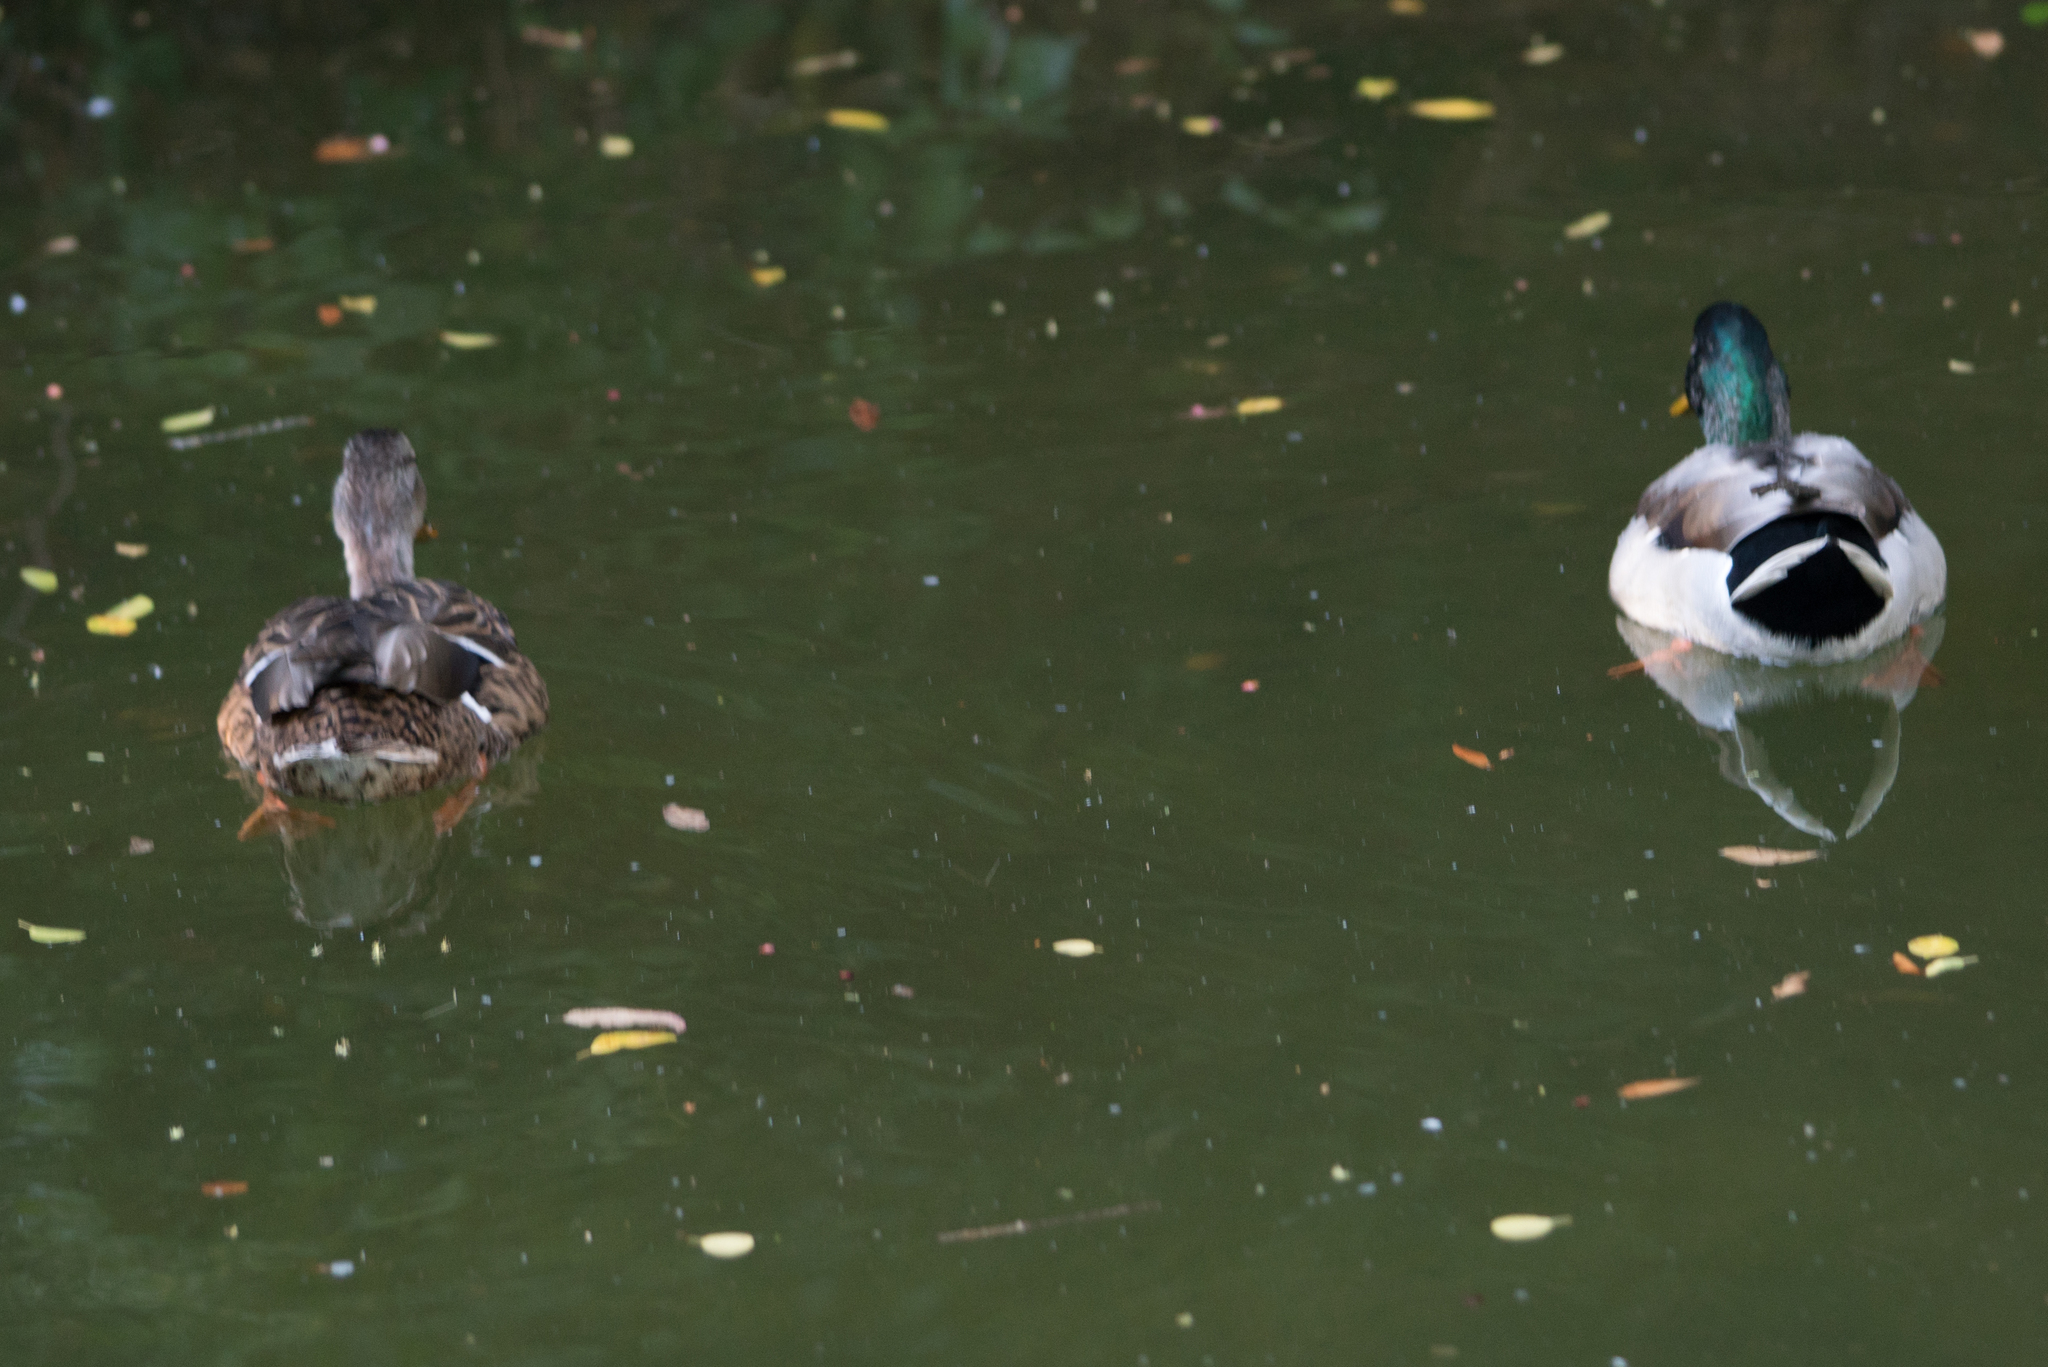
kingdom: Animalia
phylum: Chordata
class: Aves
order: Anseriformes
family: Anatidae
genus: Anas
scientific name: Anas platyrhynchos
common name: Mallard
